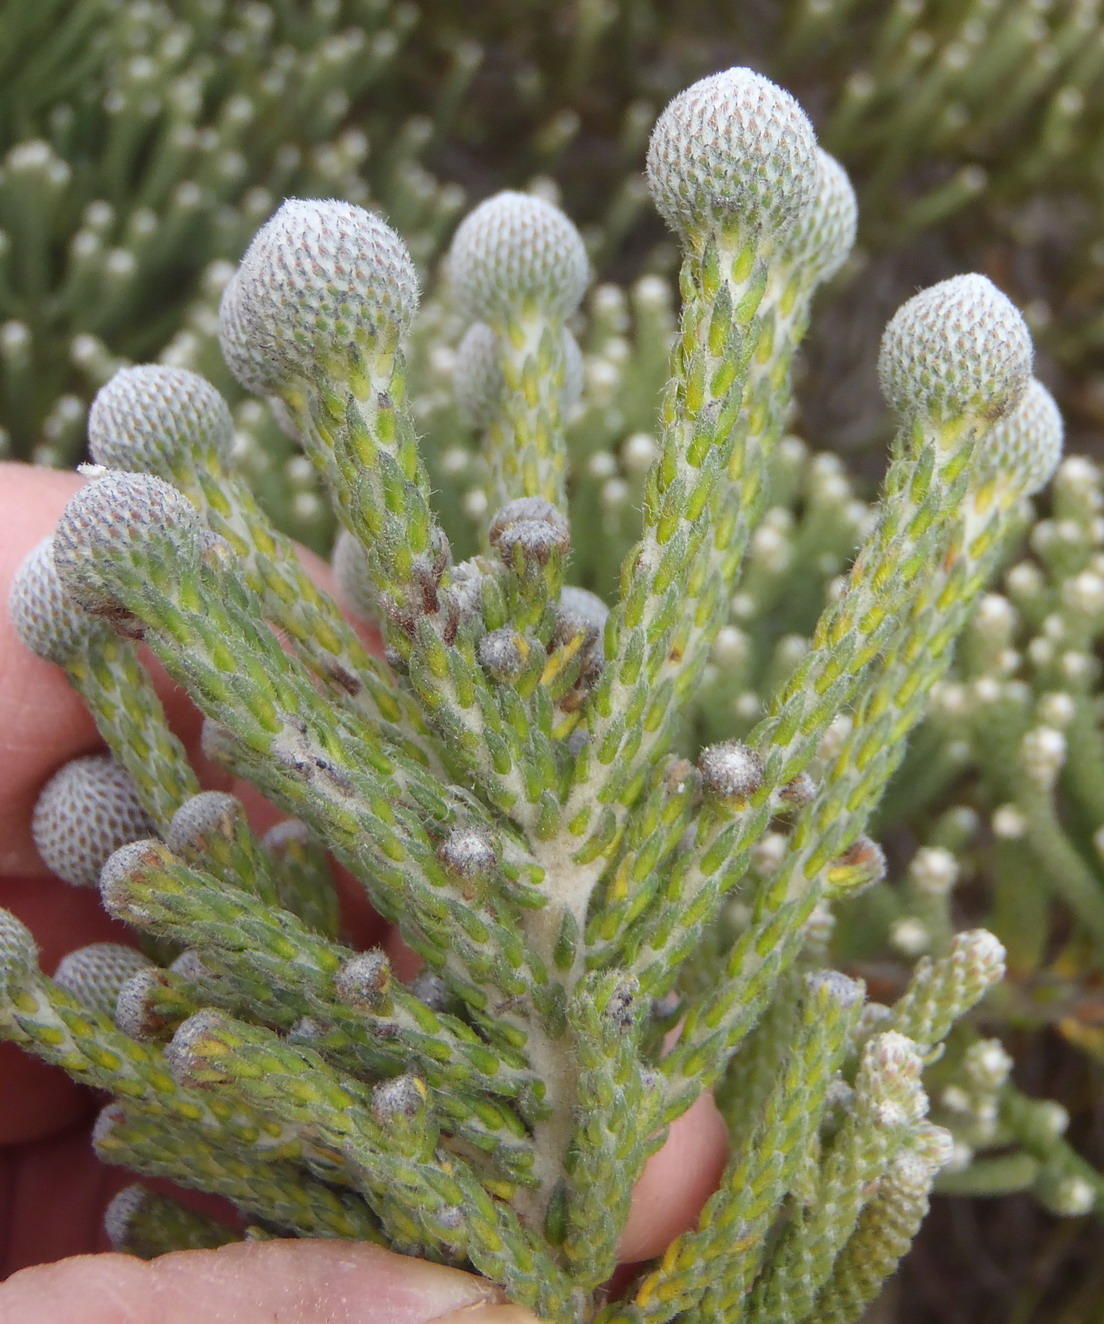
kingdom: Plantae
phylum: Tracheophyta
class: Magnoliopsida
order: Bruniales
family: Bruniaceae
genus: Brunia
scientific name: Brunia noduliflora
